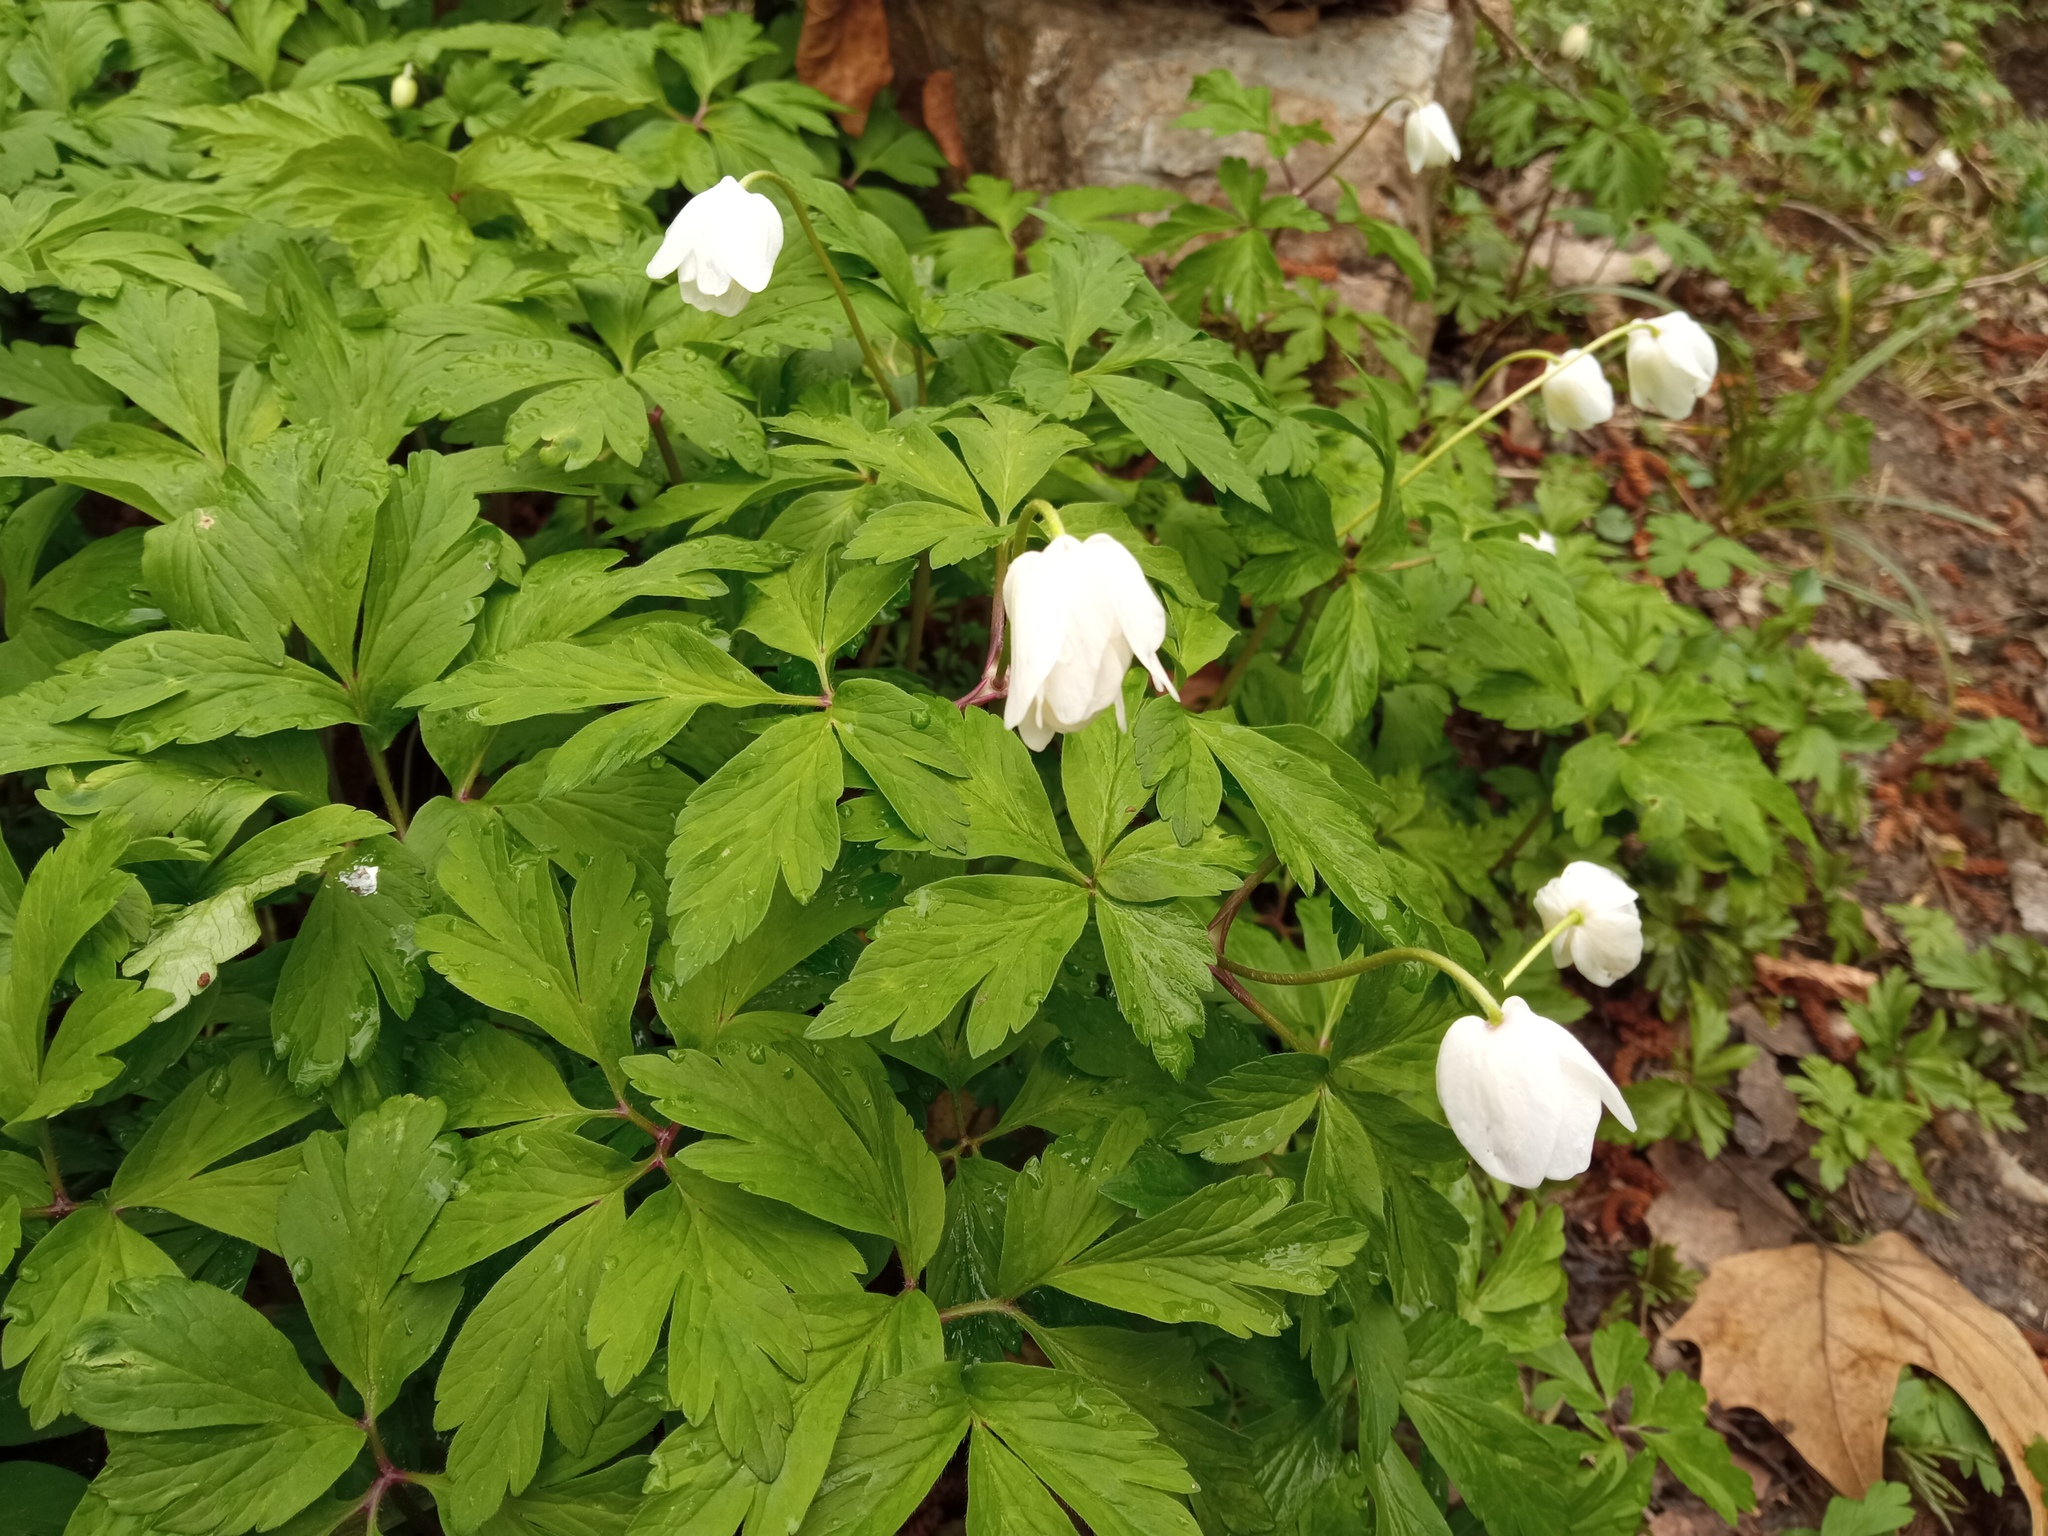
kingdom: Plantae
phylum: Tracheophyta
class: Magnoliopsida
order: Ranunculales
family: Ranunculaceae
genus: Anemone
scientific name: Anemone nemorosa
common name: Wood anemone
